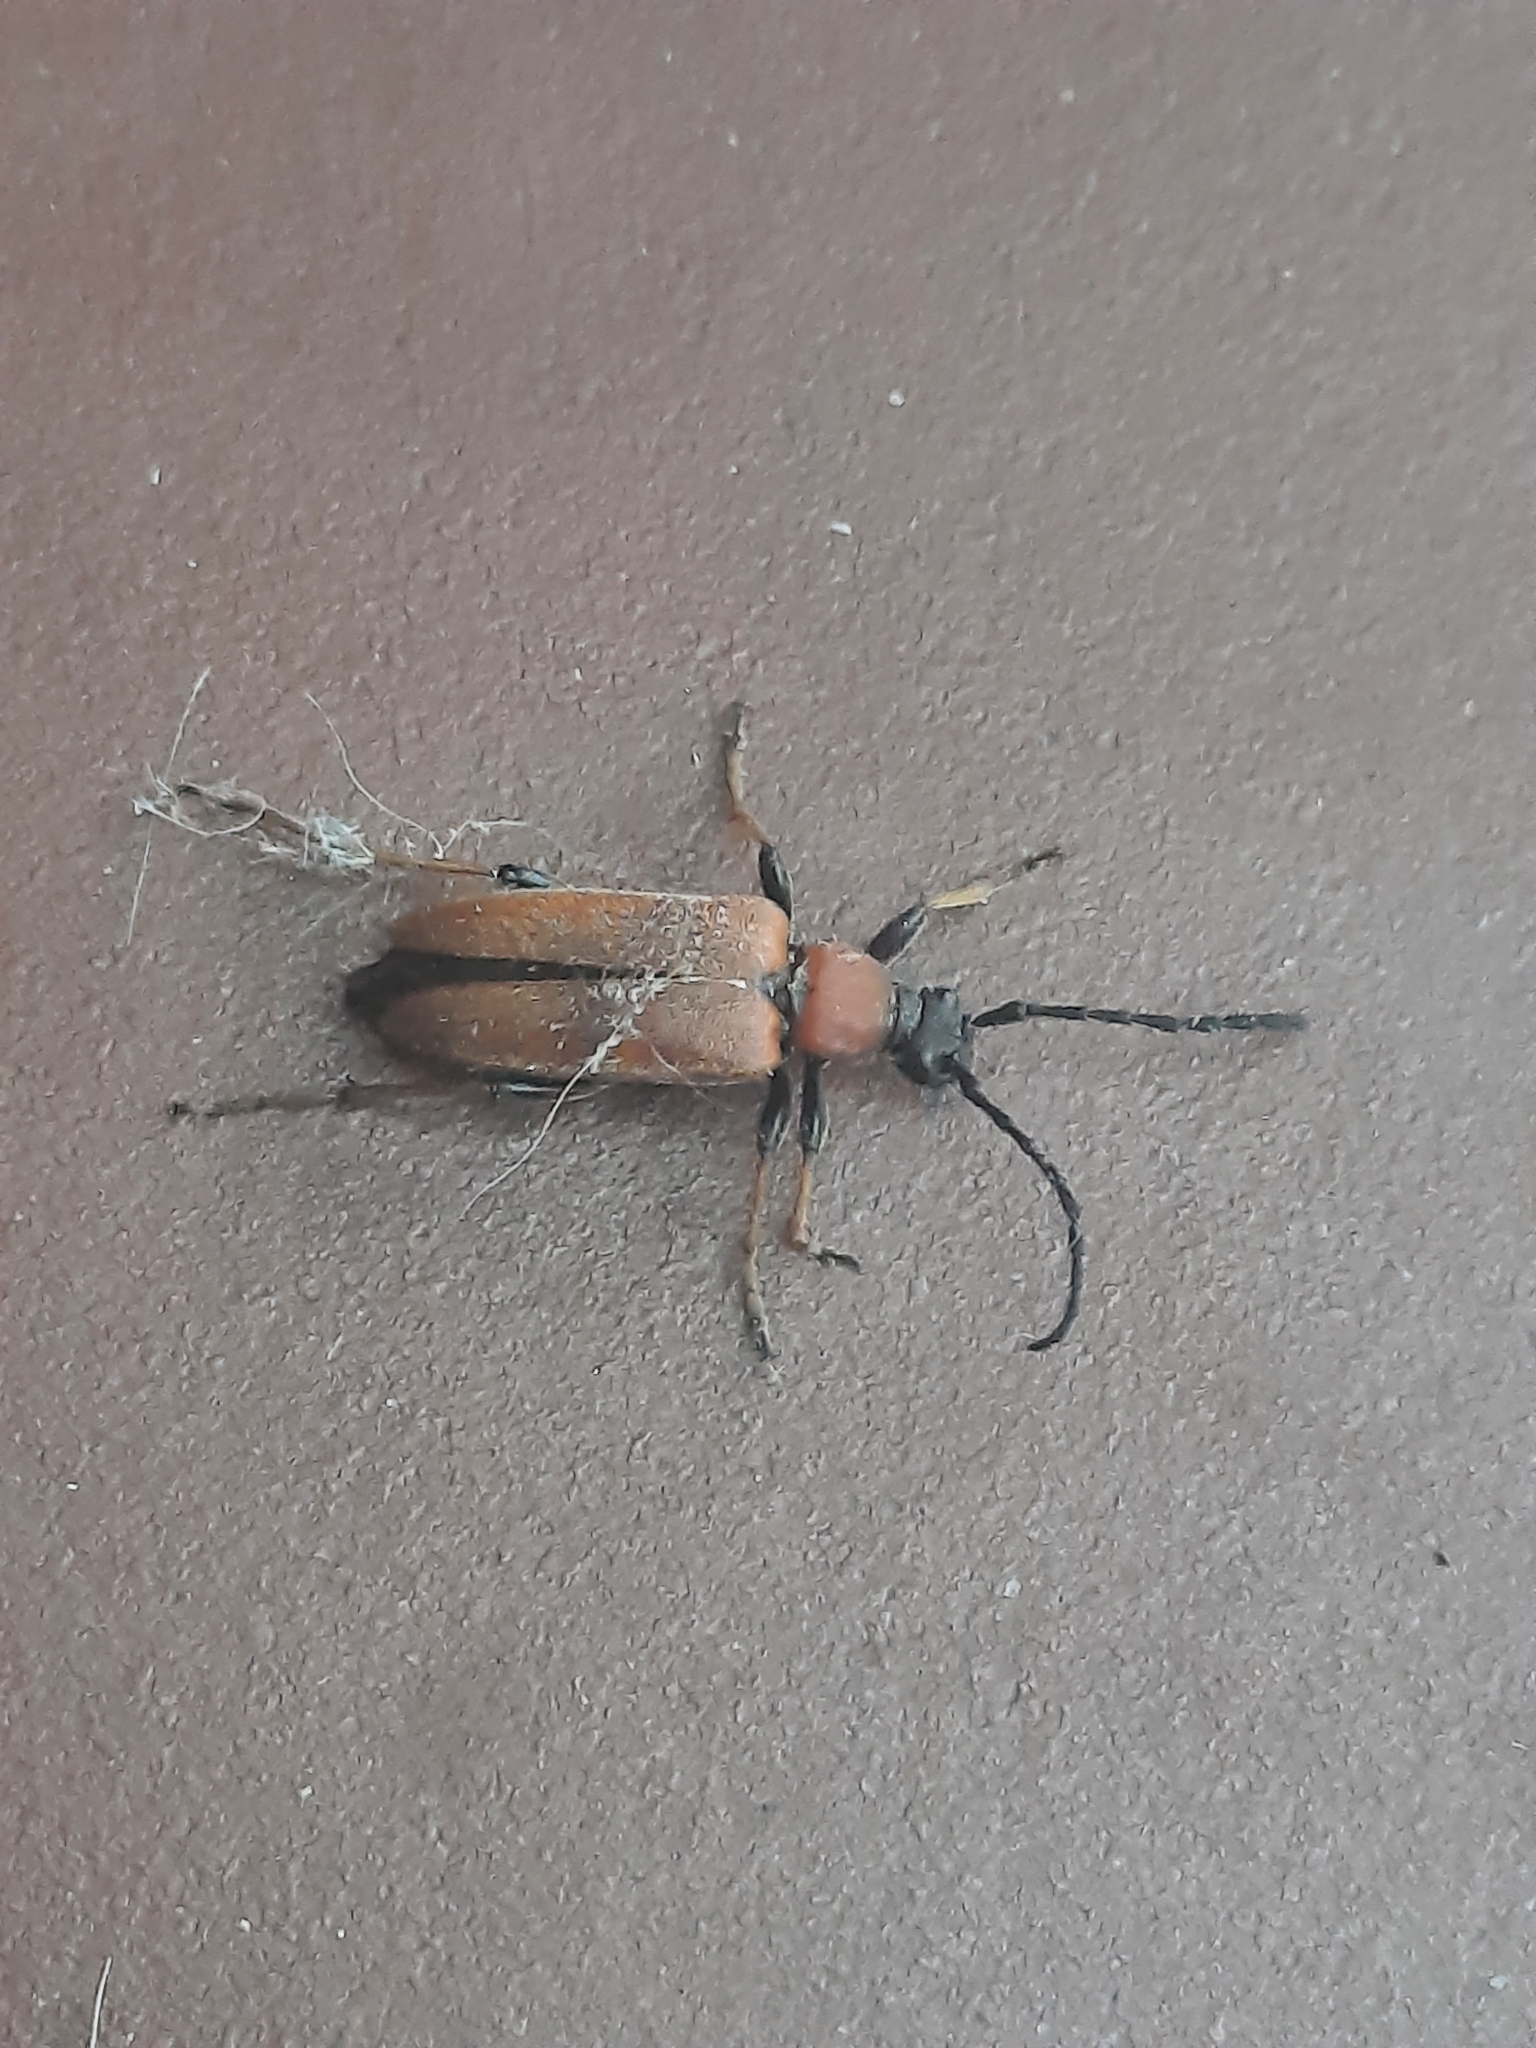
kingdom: Animalia
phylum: Arthropoda
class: Insecta
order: Coleoptera
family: Cerambycidae
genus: Stictoleptura
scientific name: Stictoleptura rubra
